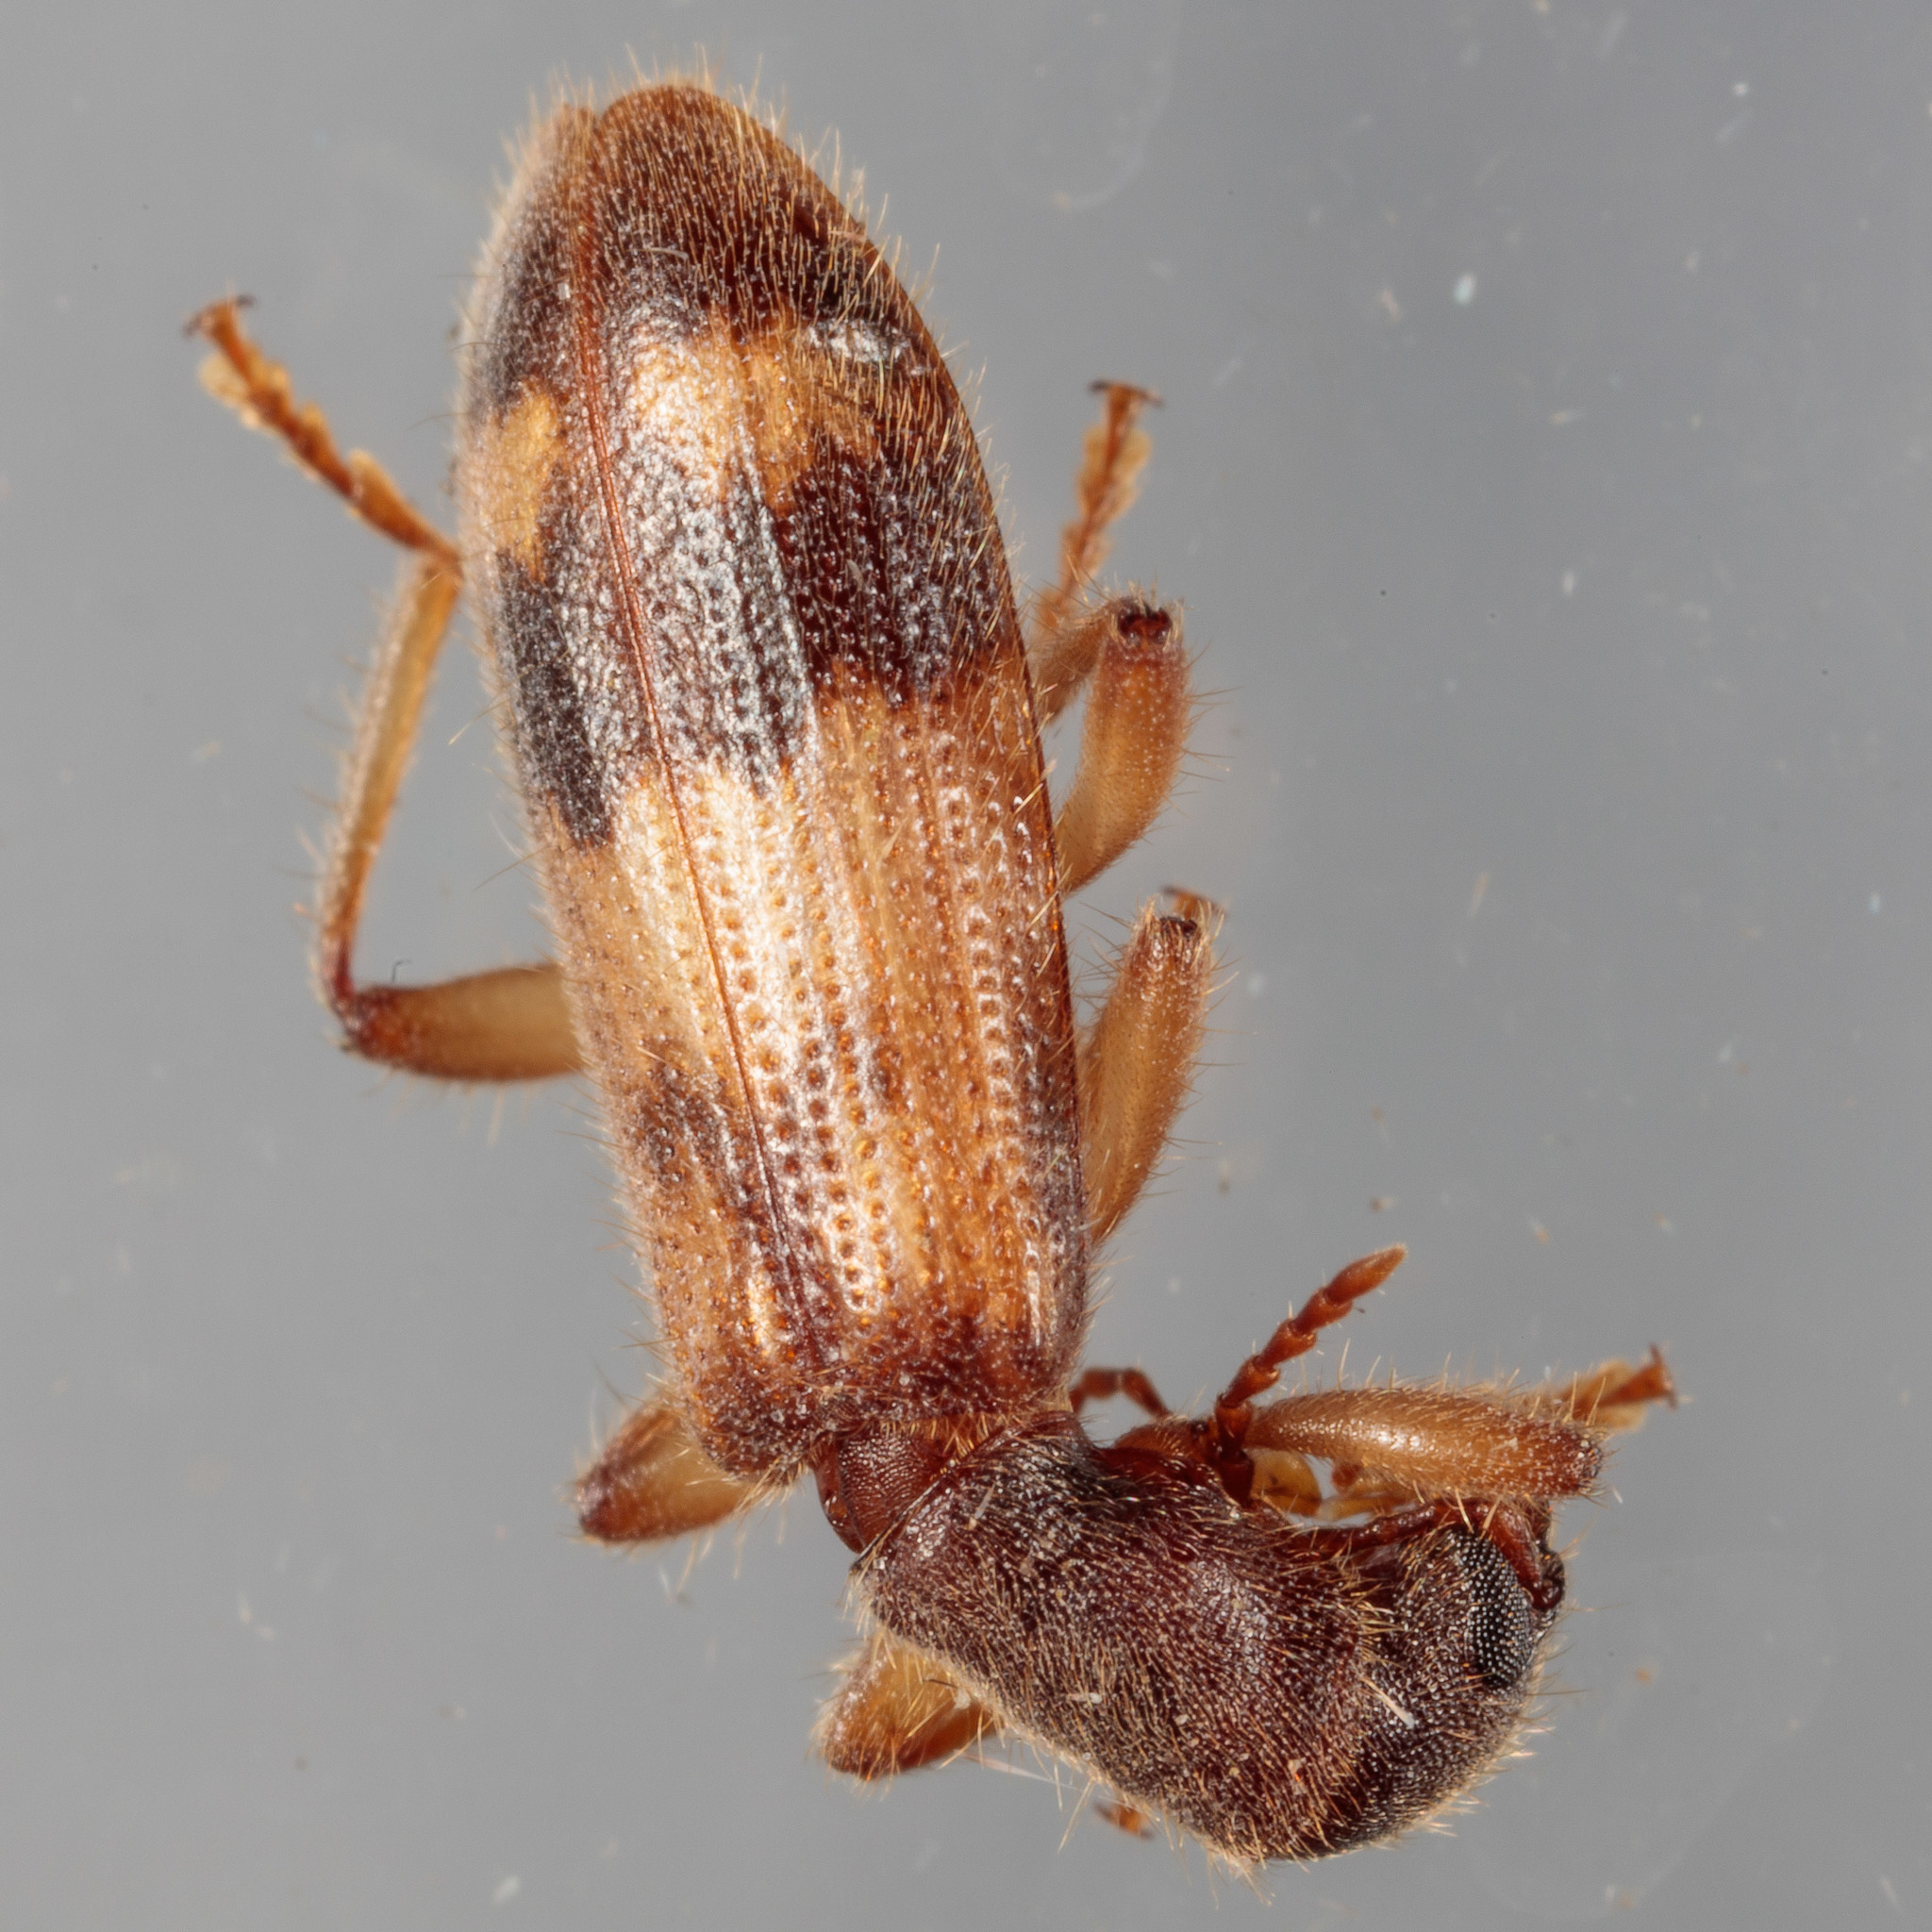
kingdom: Animalia
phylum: Arthropoda
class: Insecta
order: Coleoptera
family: Cleridae
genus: Cymatodera
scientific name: Cymatodera undulata
